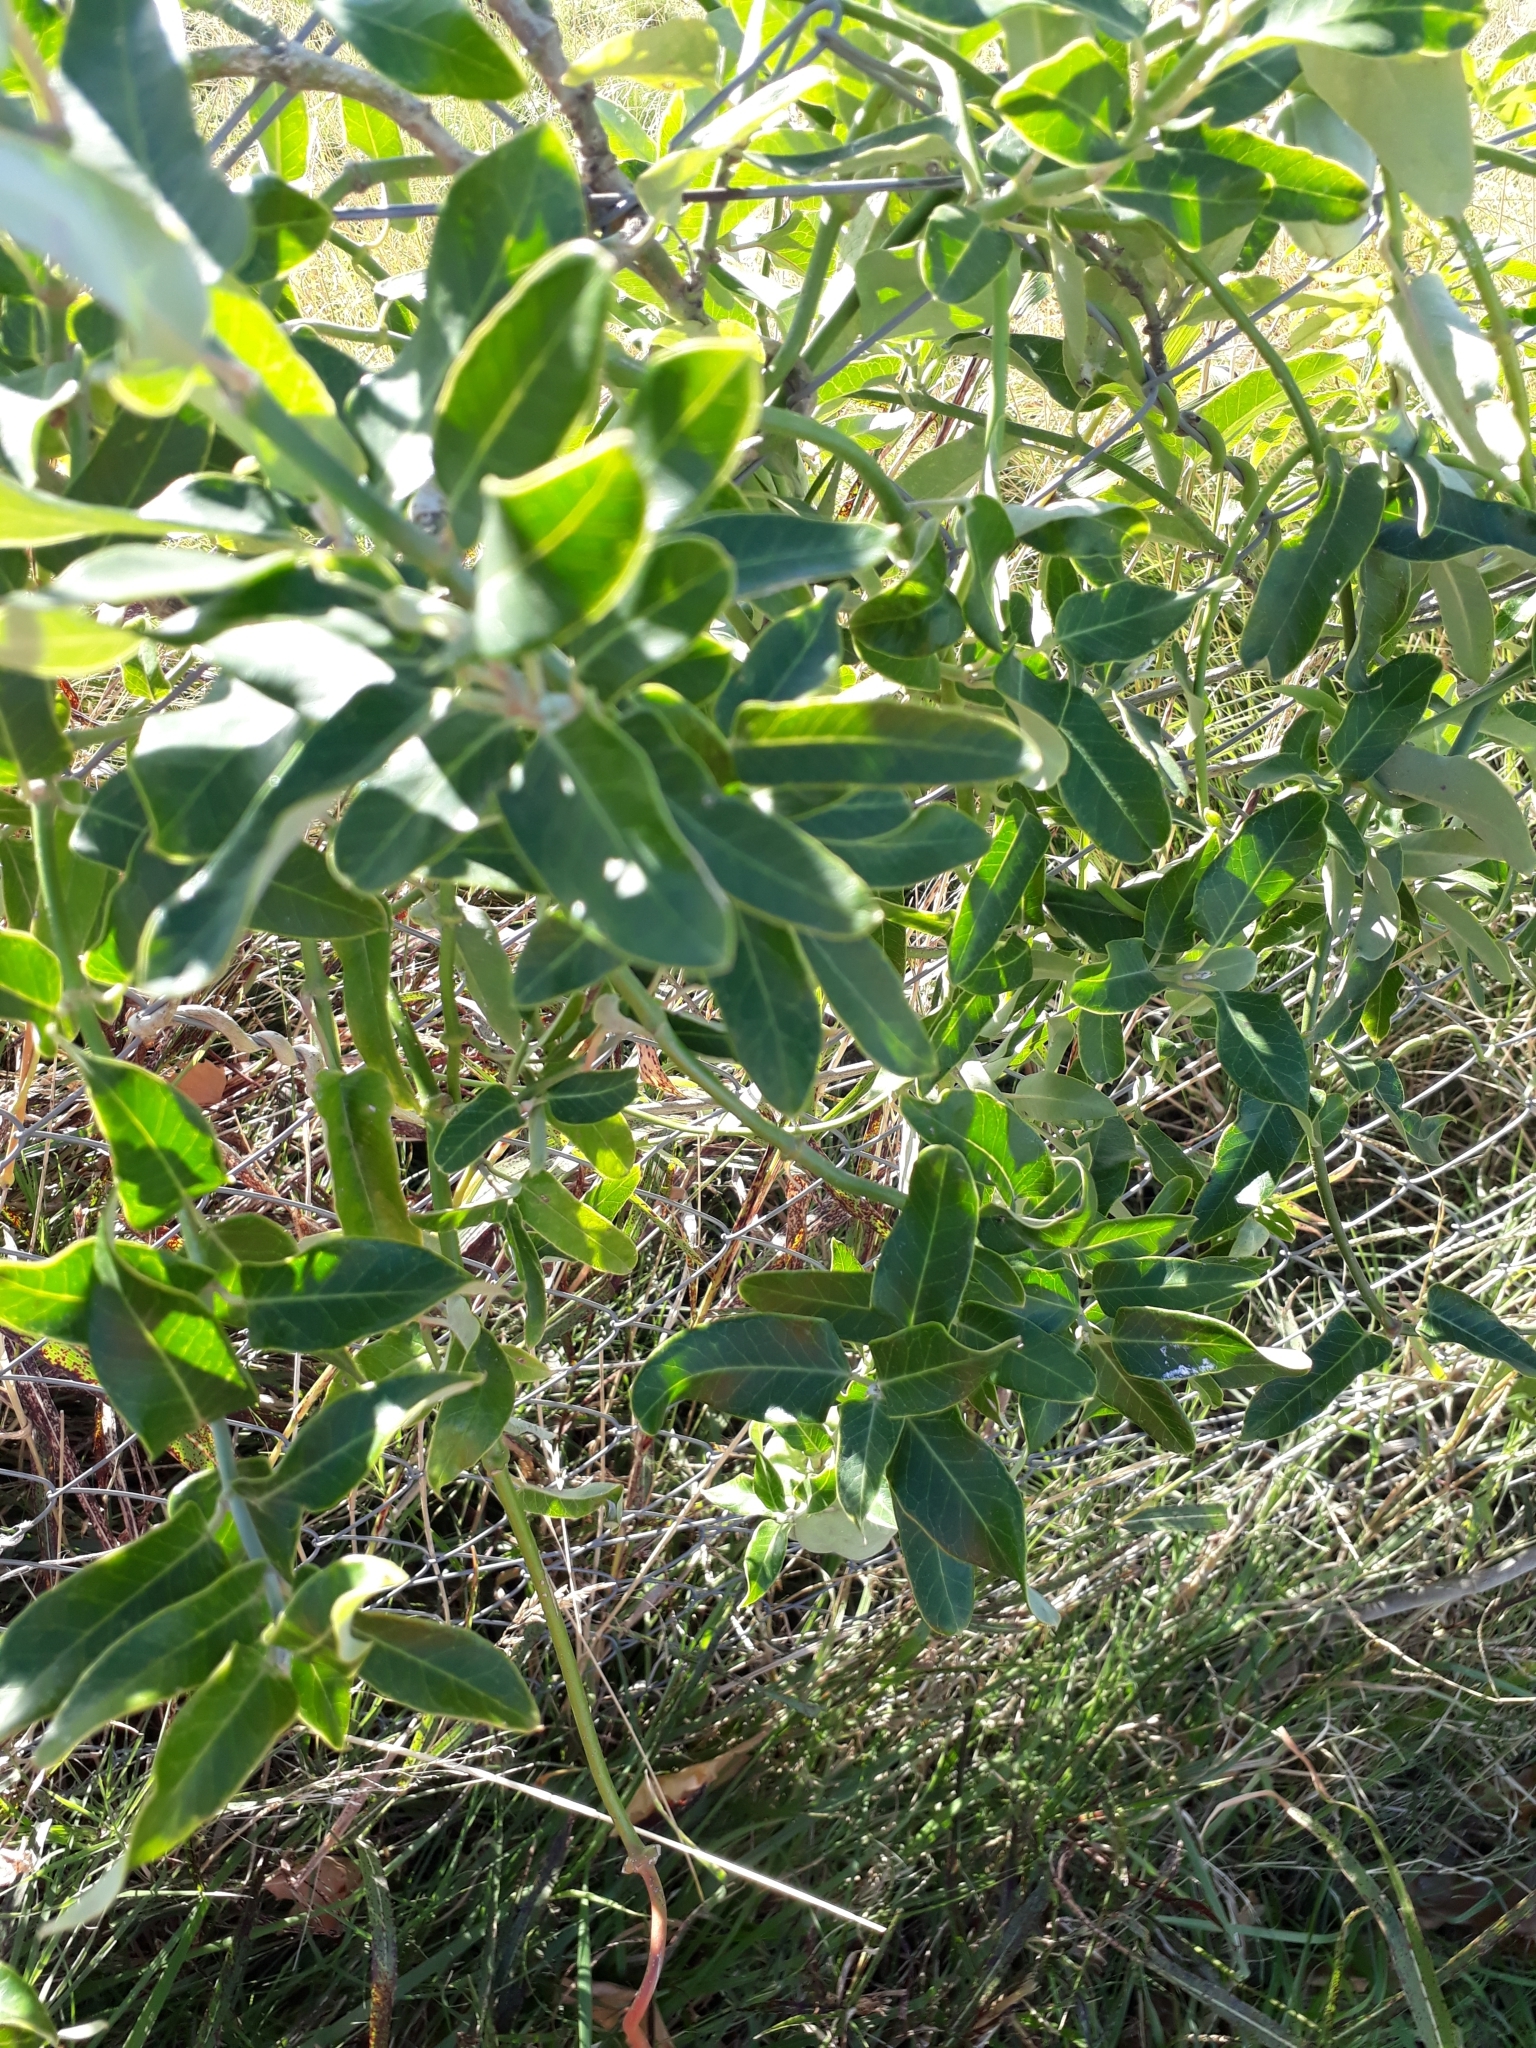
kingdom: Plantae
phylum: Tracheophyta
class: Magnoliopsida
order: Gentianales
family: Apocynaceae
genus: Araujia
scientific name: Araujia sericifera
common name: White bladderflower
